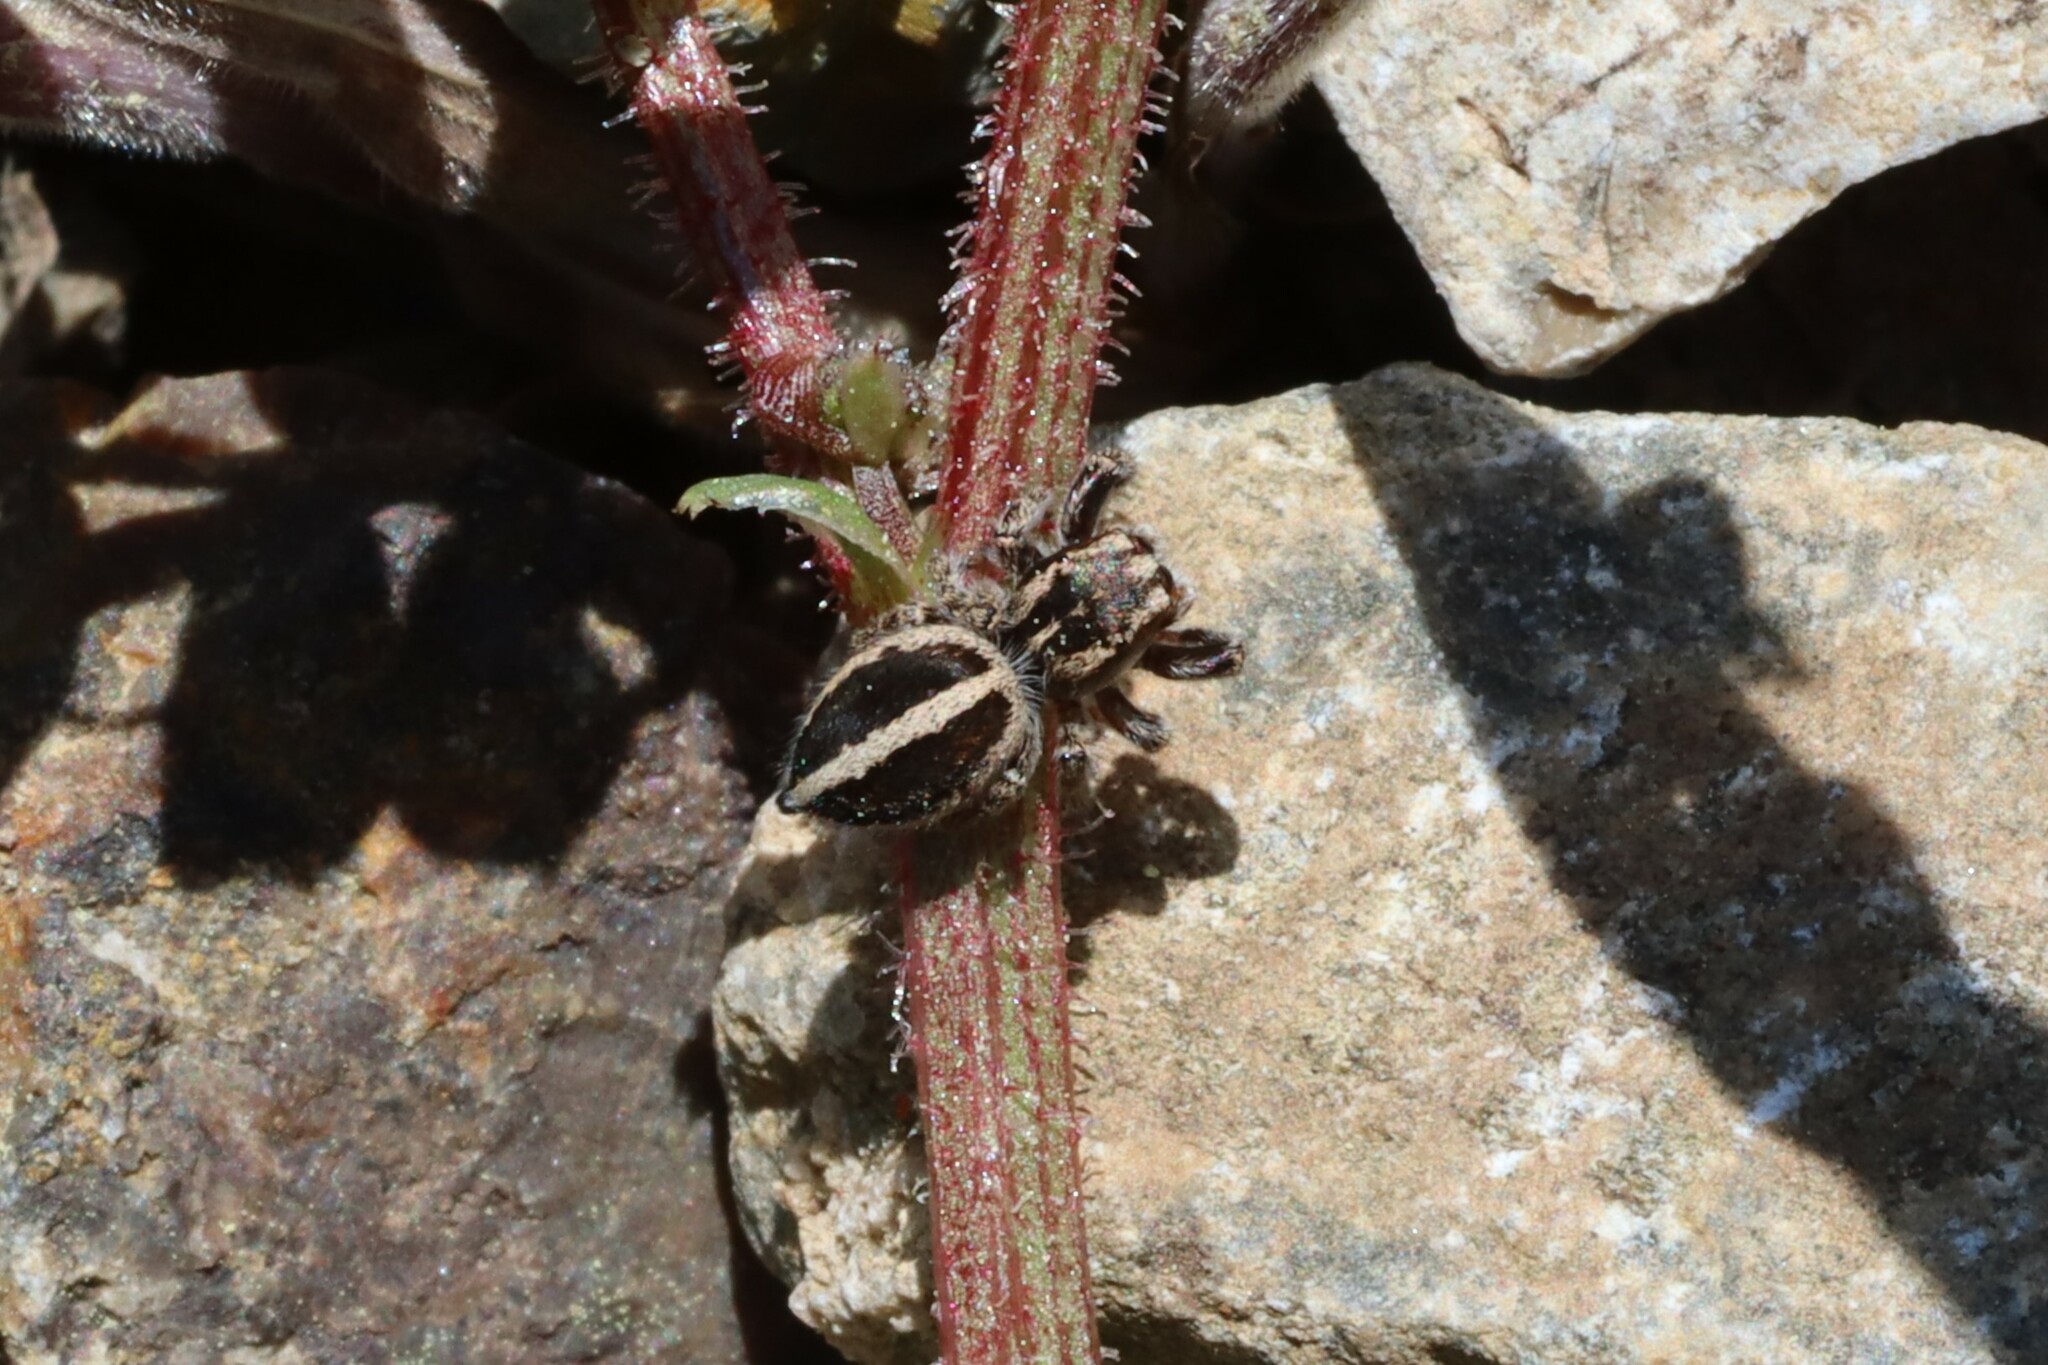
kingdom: Animalia
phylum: Arthropoda
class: Arachnida
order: Araneae
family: Salticidae
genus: Pellenes
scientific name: Pellenes diagonalis
